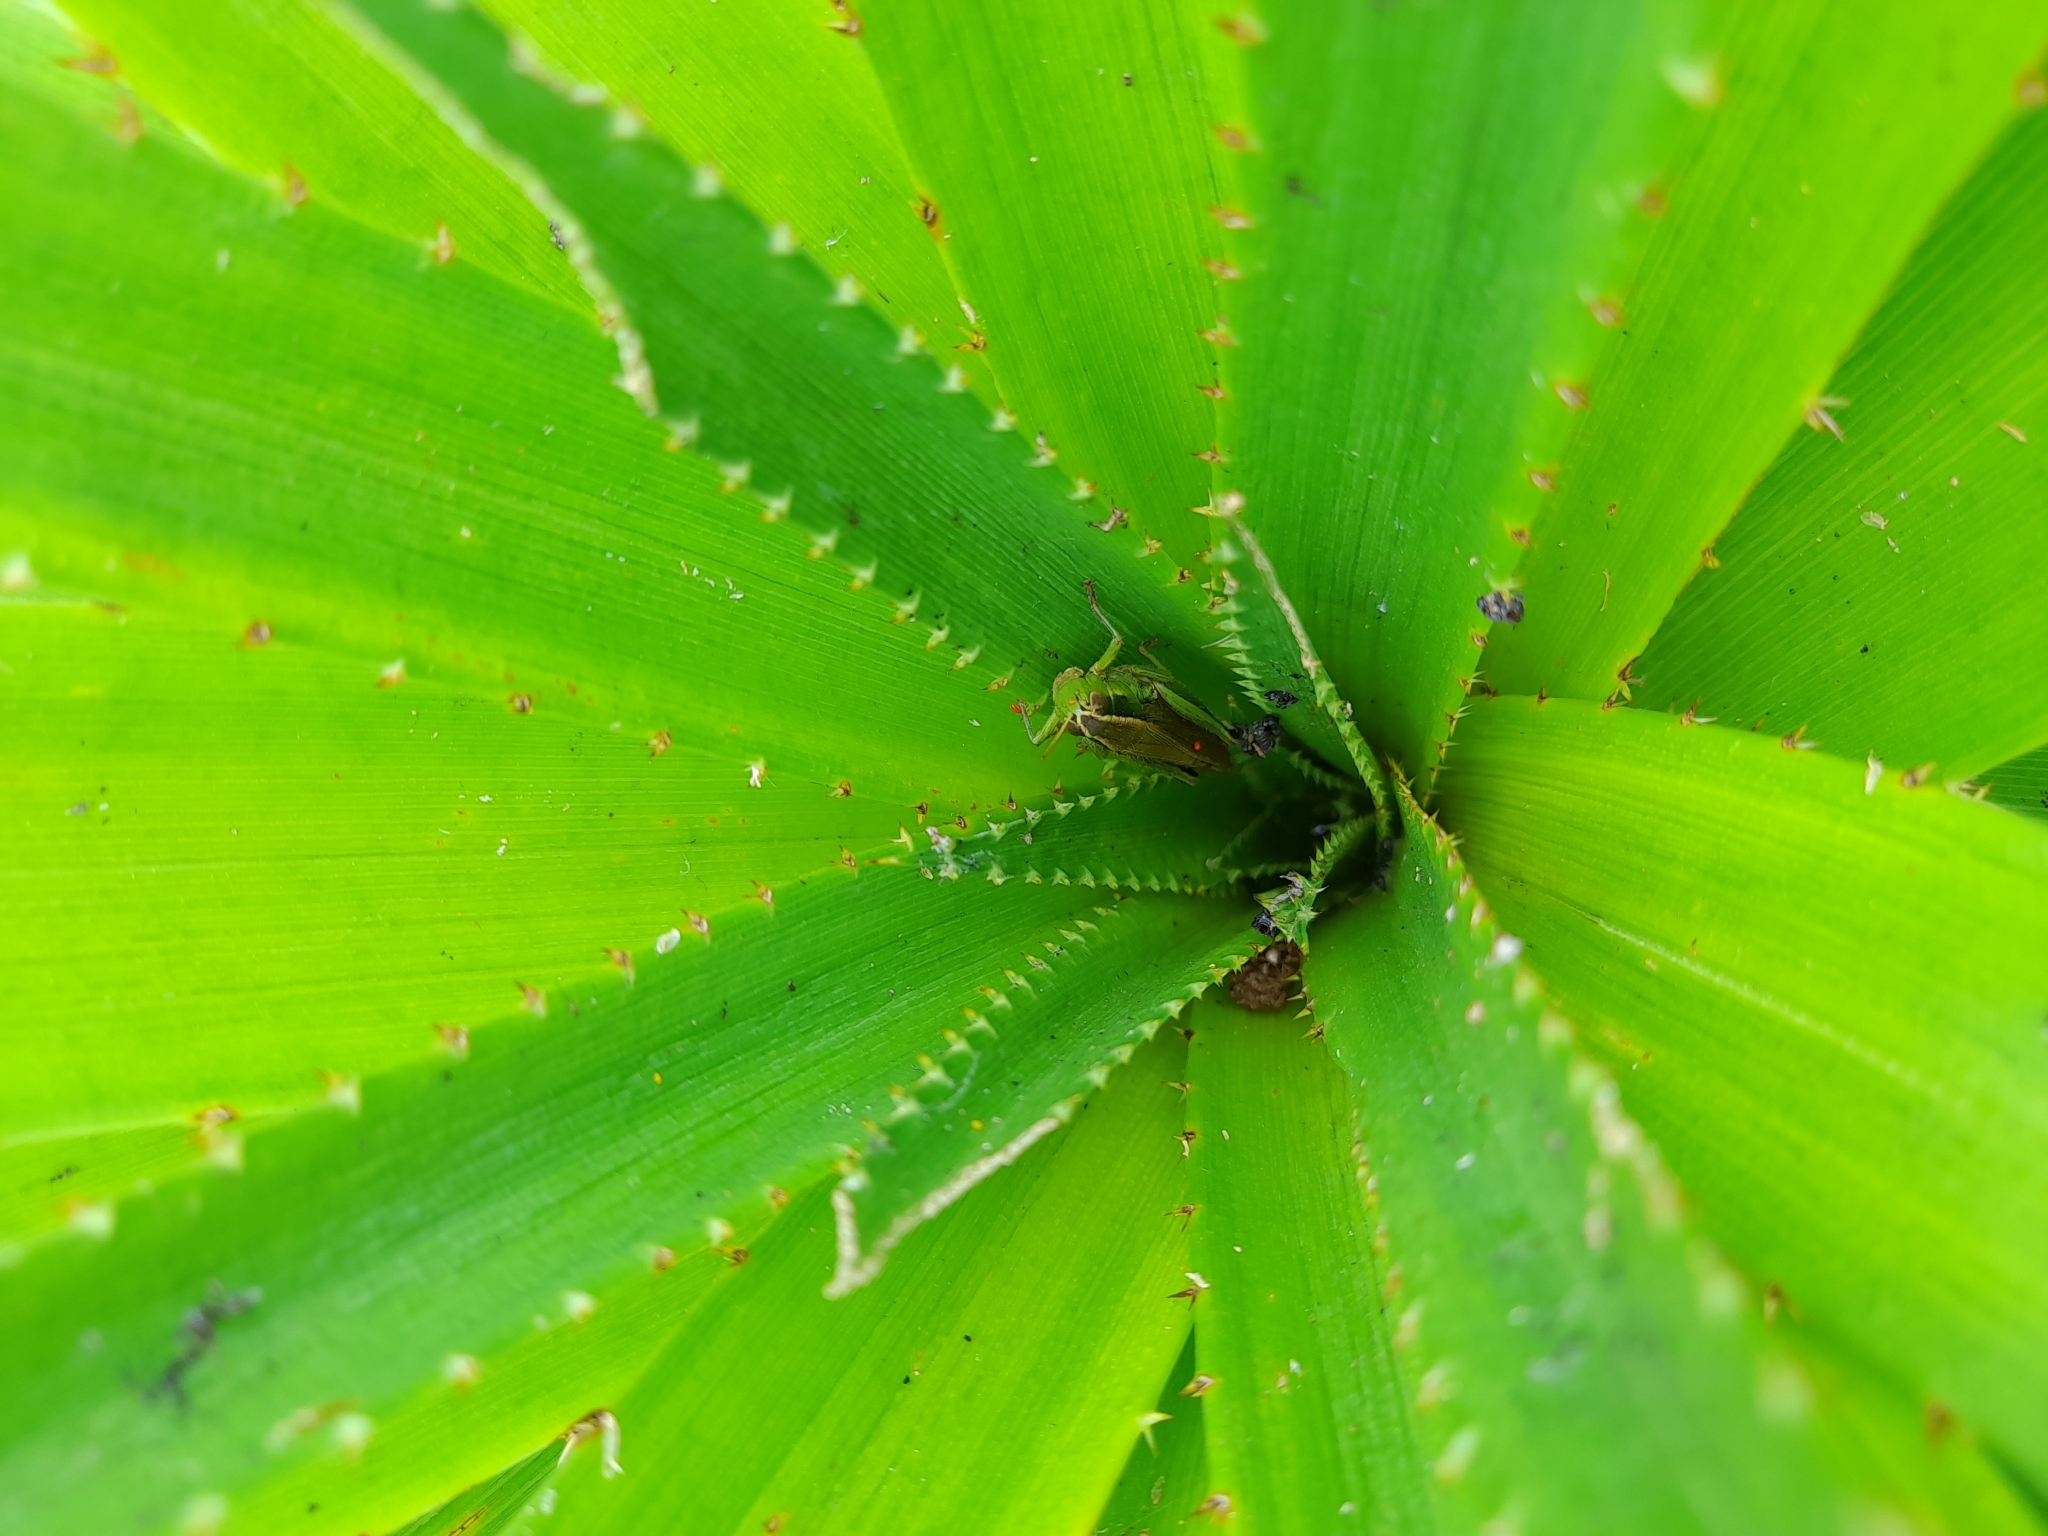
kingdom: Animalia
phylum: Arthropoda
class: Insecta
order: Orthoptera
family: Acrididae
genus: Scotussa
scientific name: Scotussa cliens
